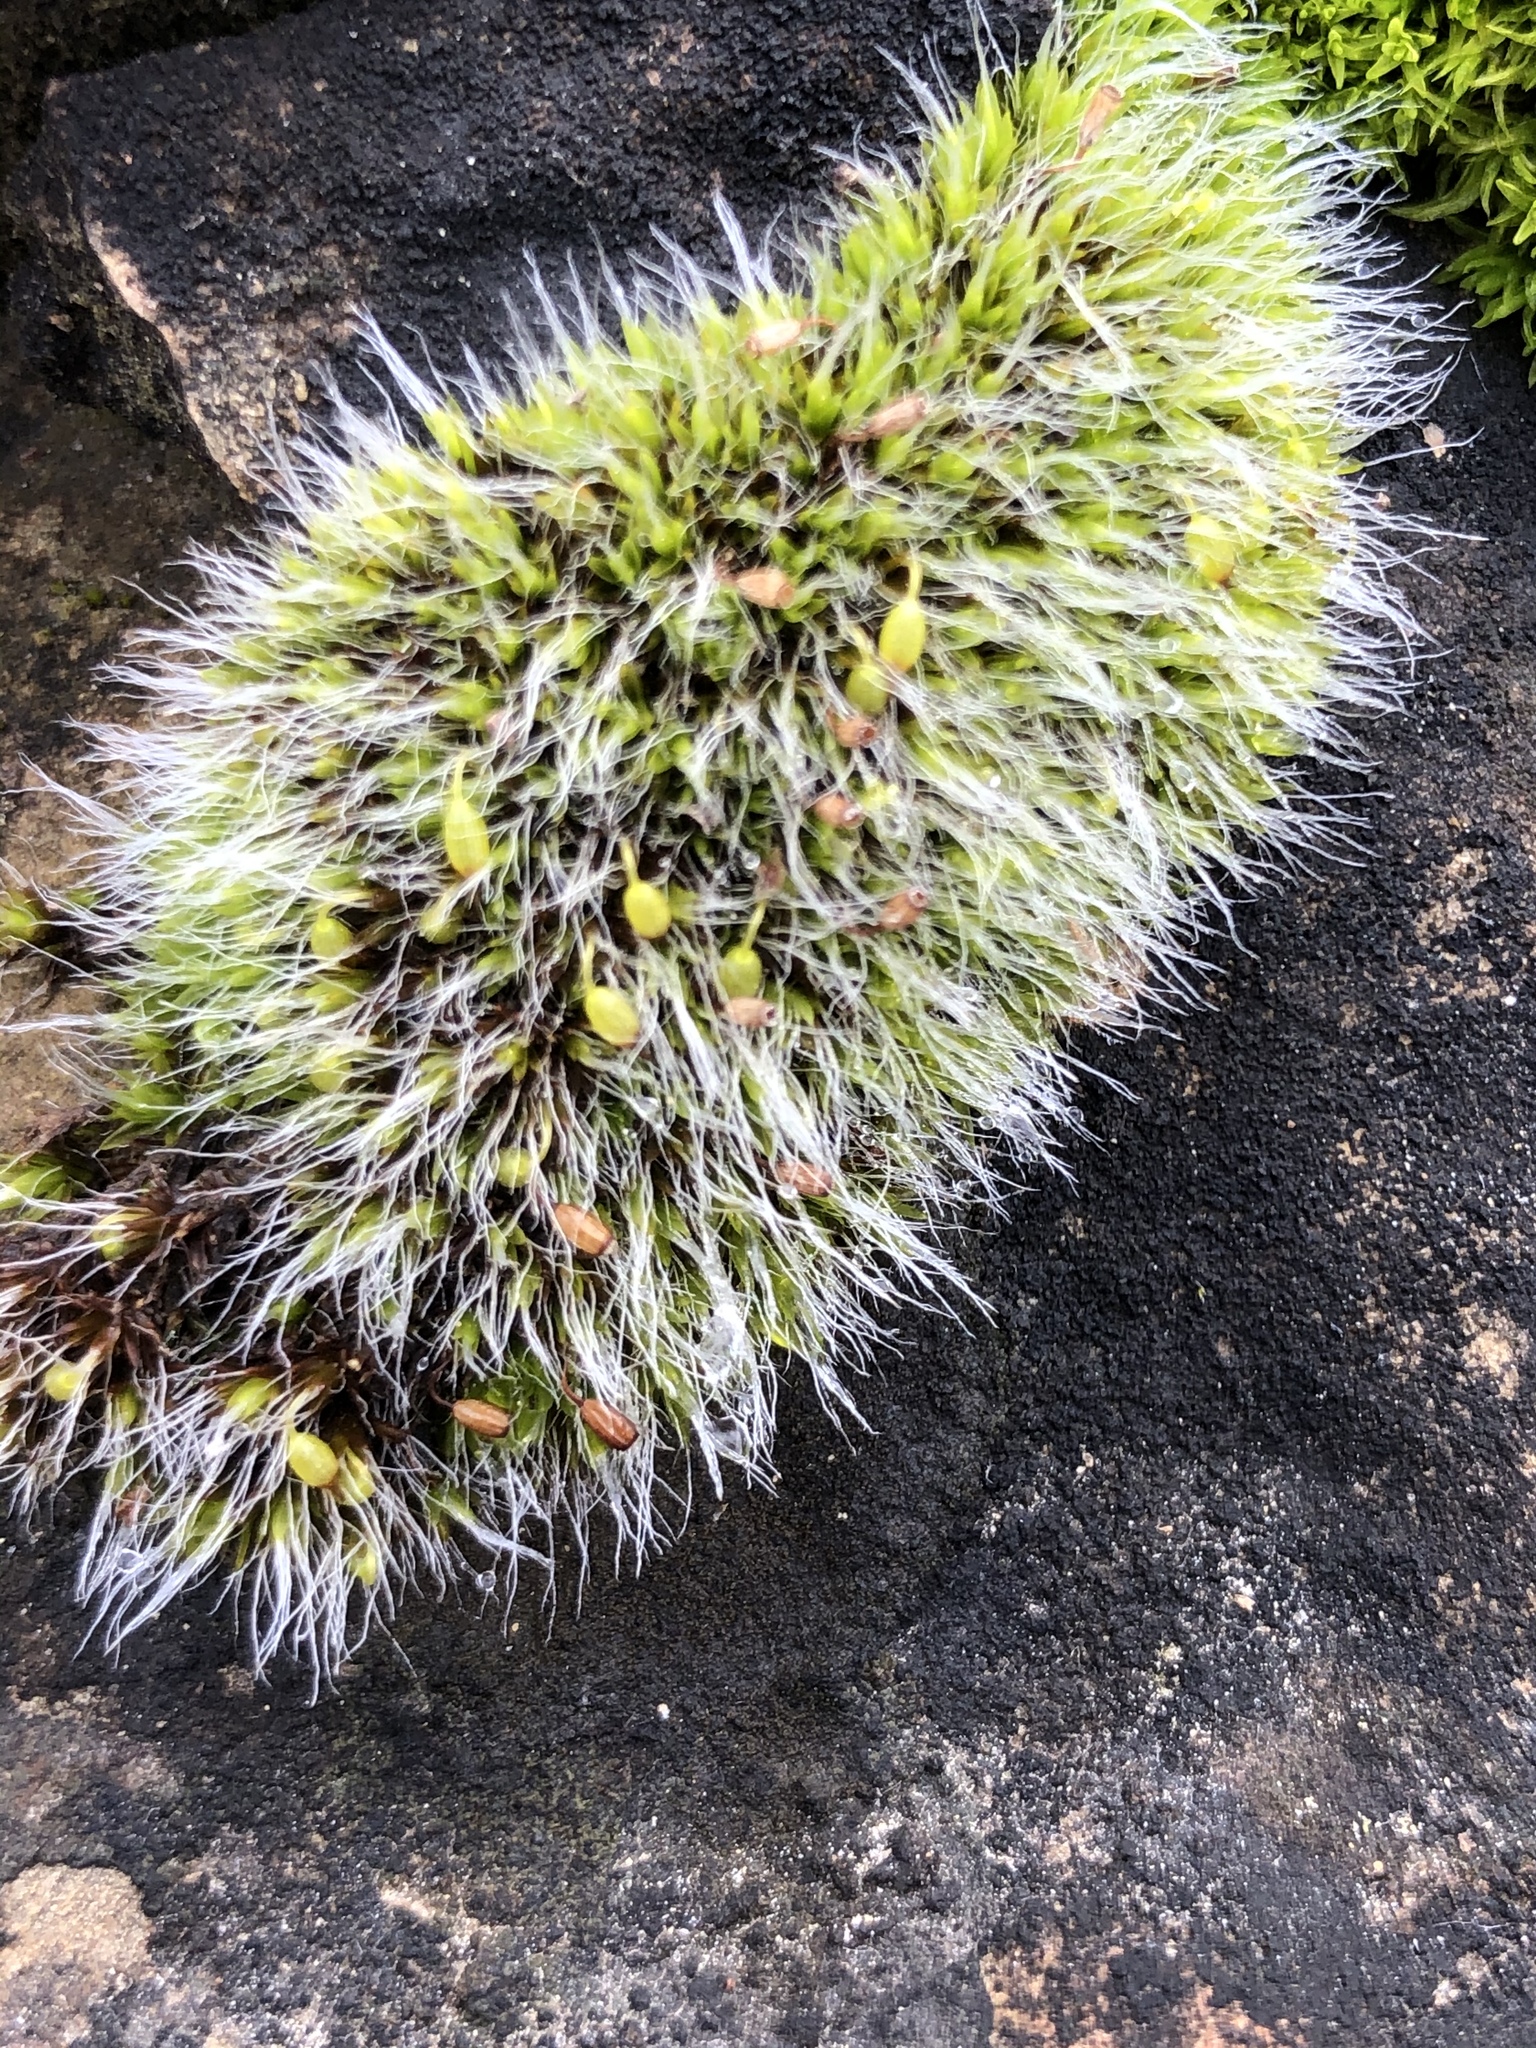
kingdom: Plantae
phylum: Bryophyta
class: Bryopsida
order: Grimmiales
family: Grimmiaceae
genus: Grimmia
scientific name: Grimmia pulvinata
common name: Grey-cushioned grimmia
